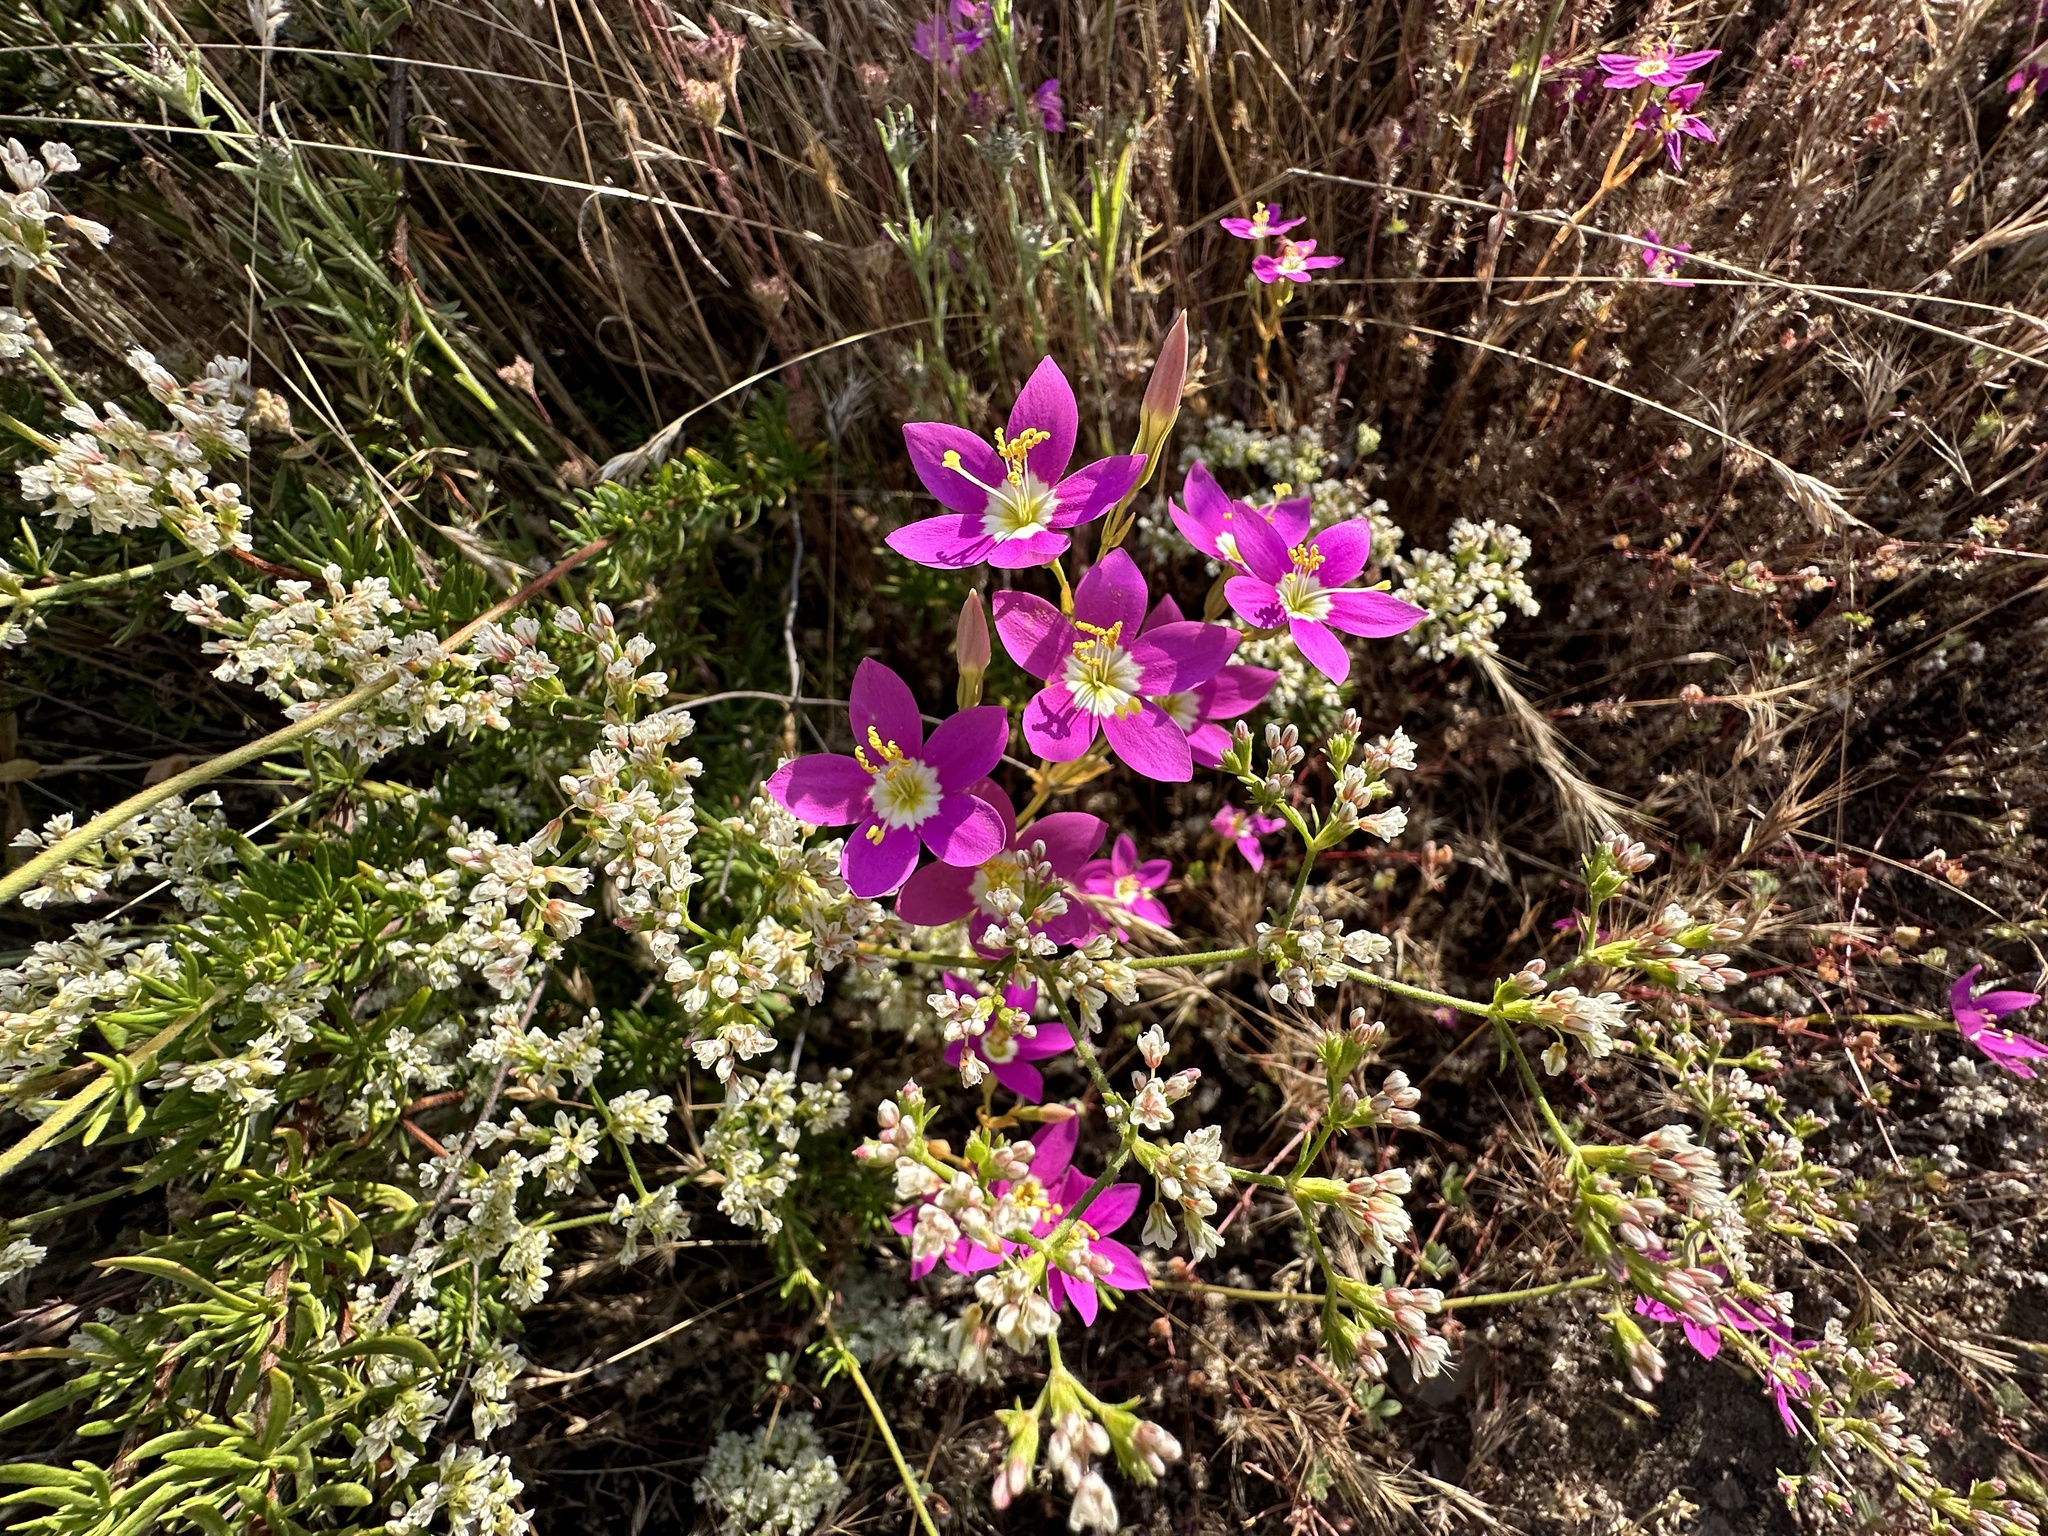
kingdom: Plantae
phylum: Tracheophyta
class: Magnoliopsida
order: Gentianales
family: Gentianaceae
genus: Zeltnera
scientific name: Zeltnera venusta
